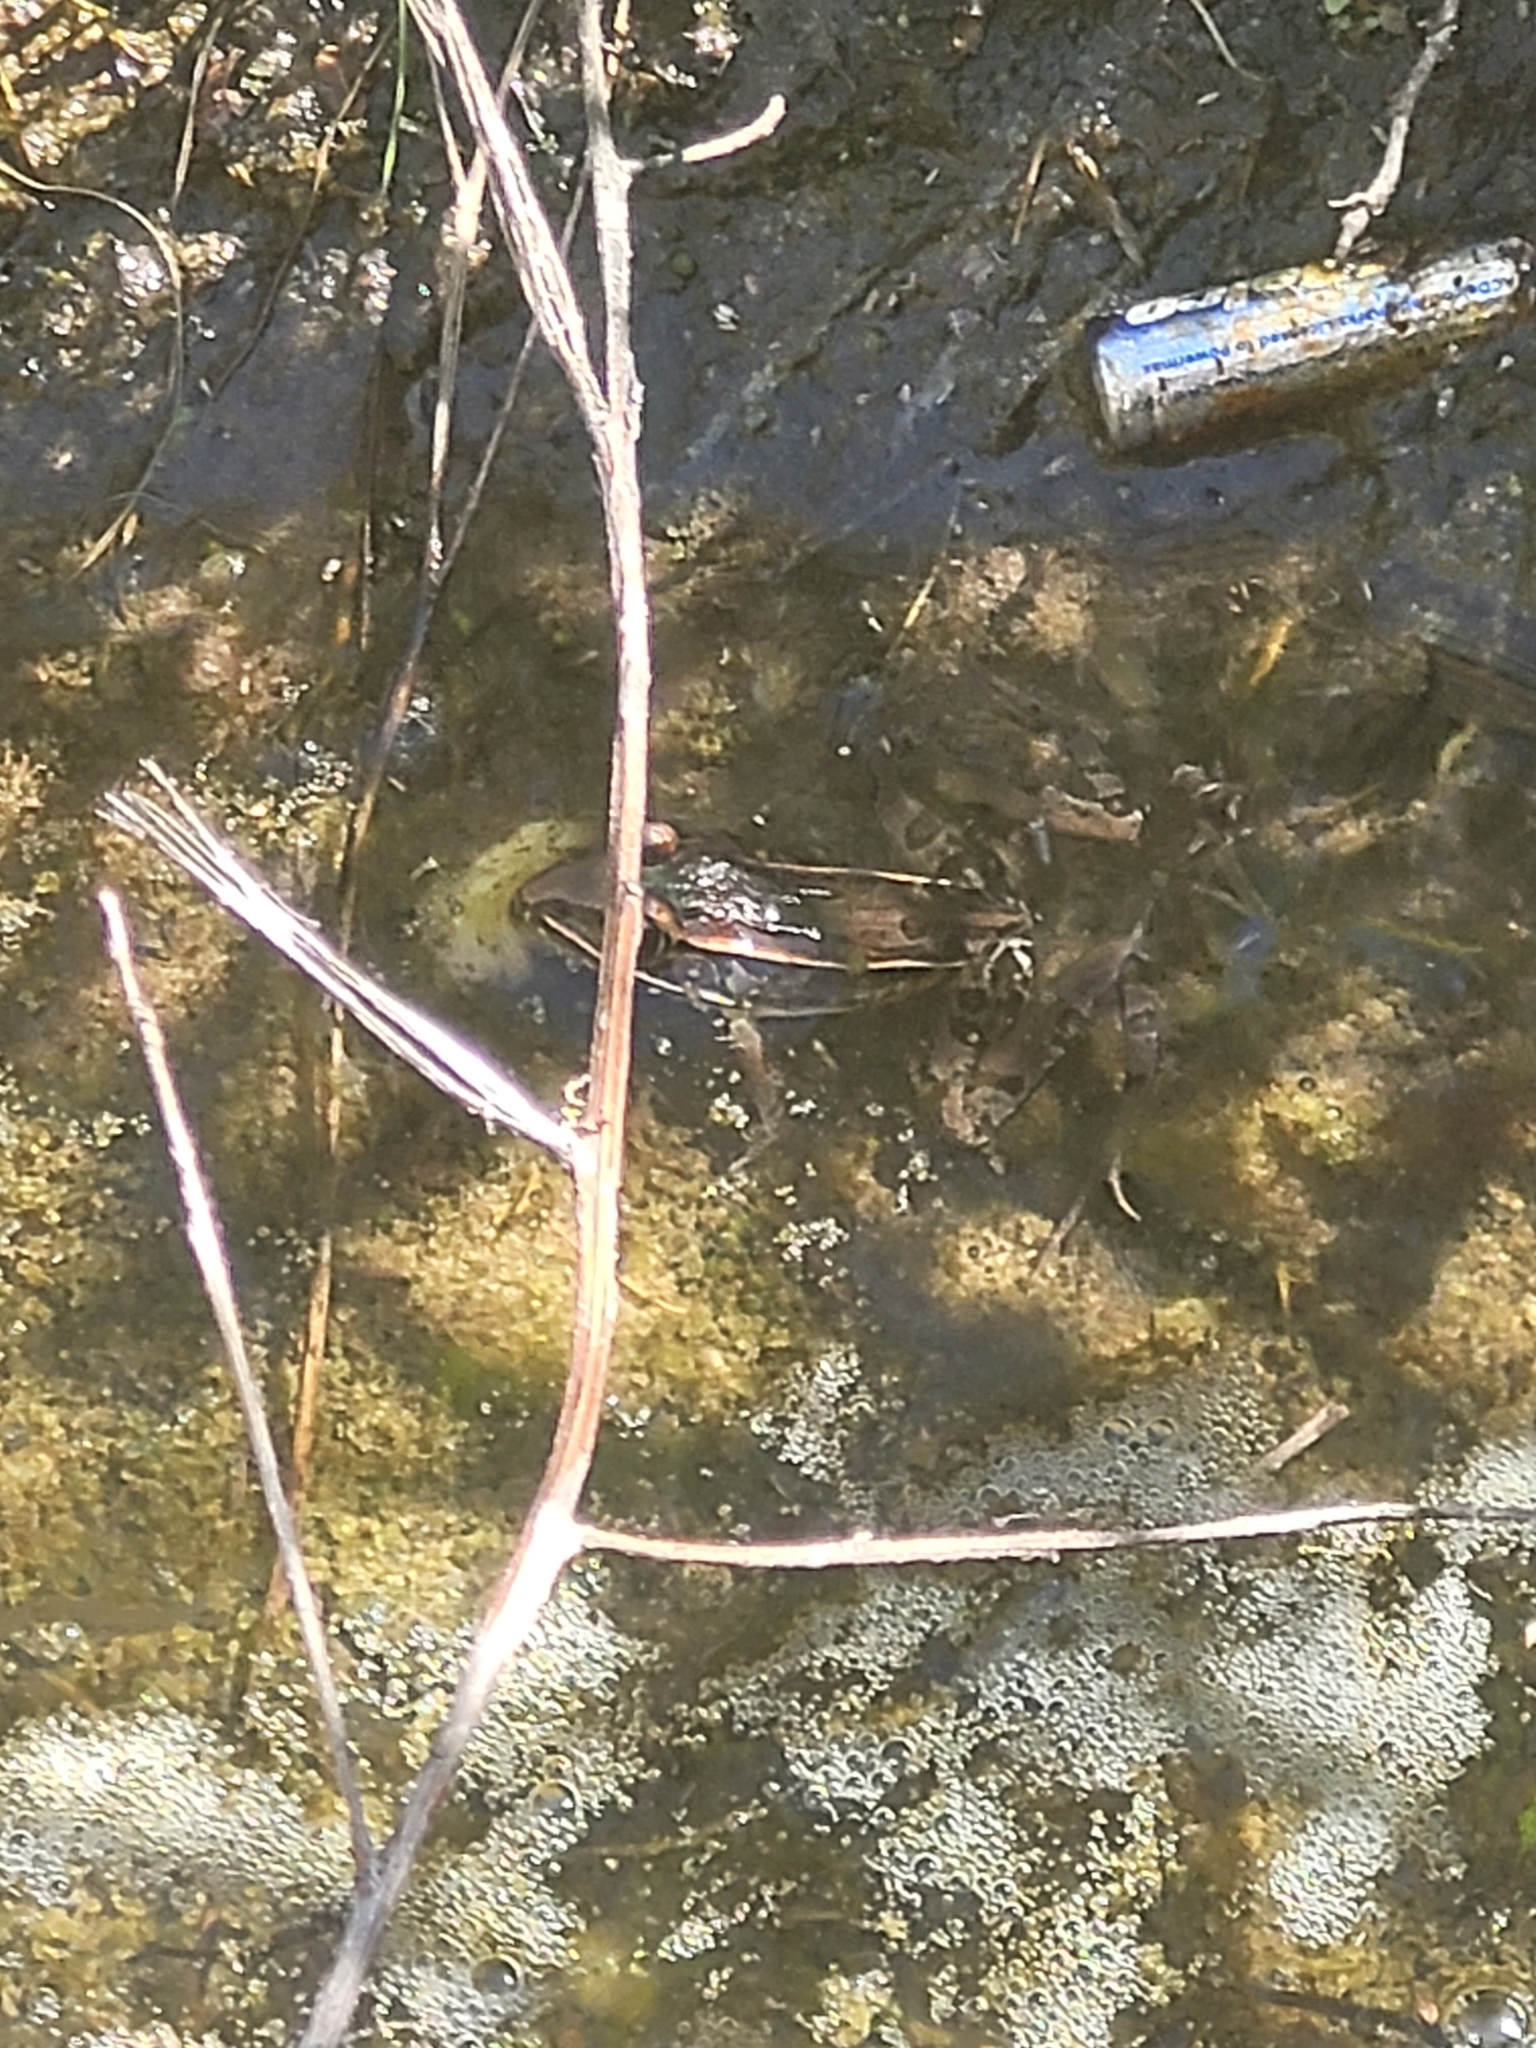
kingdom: Animalia
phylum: Chordata
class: Amphibia
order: Anura
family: Ranidae
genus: Lithobates
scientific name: Lithobates sphenocephalus
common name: Southern leopard frog
